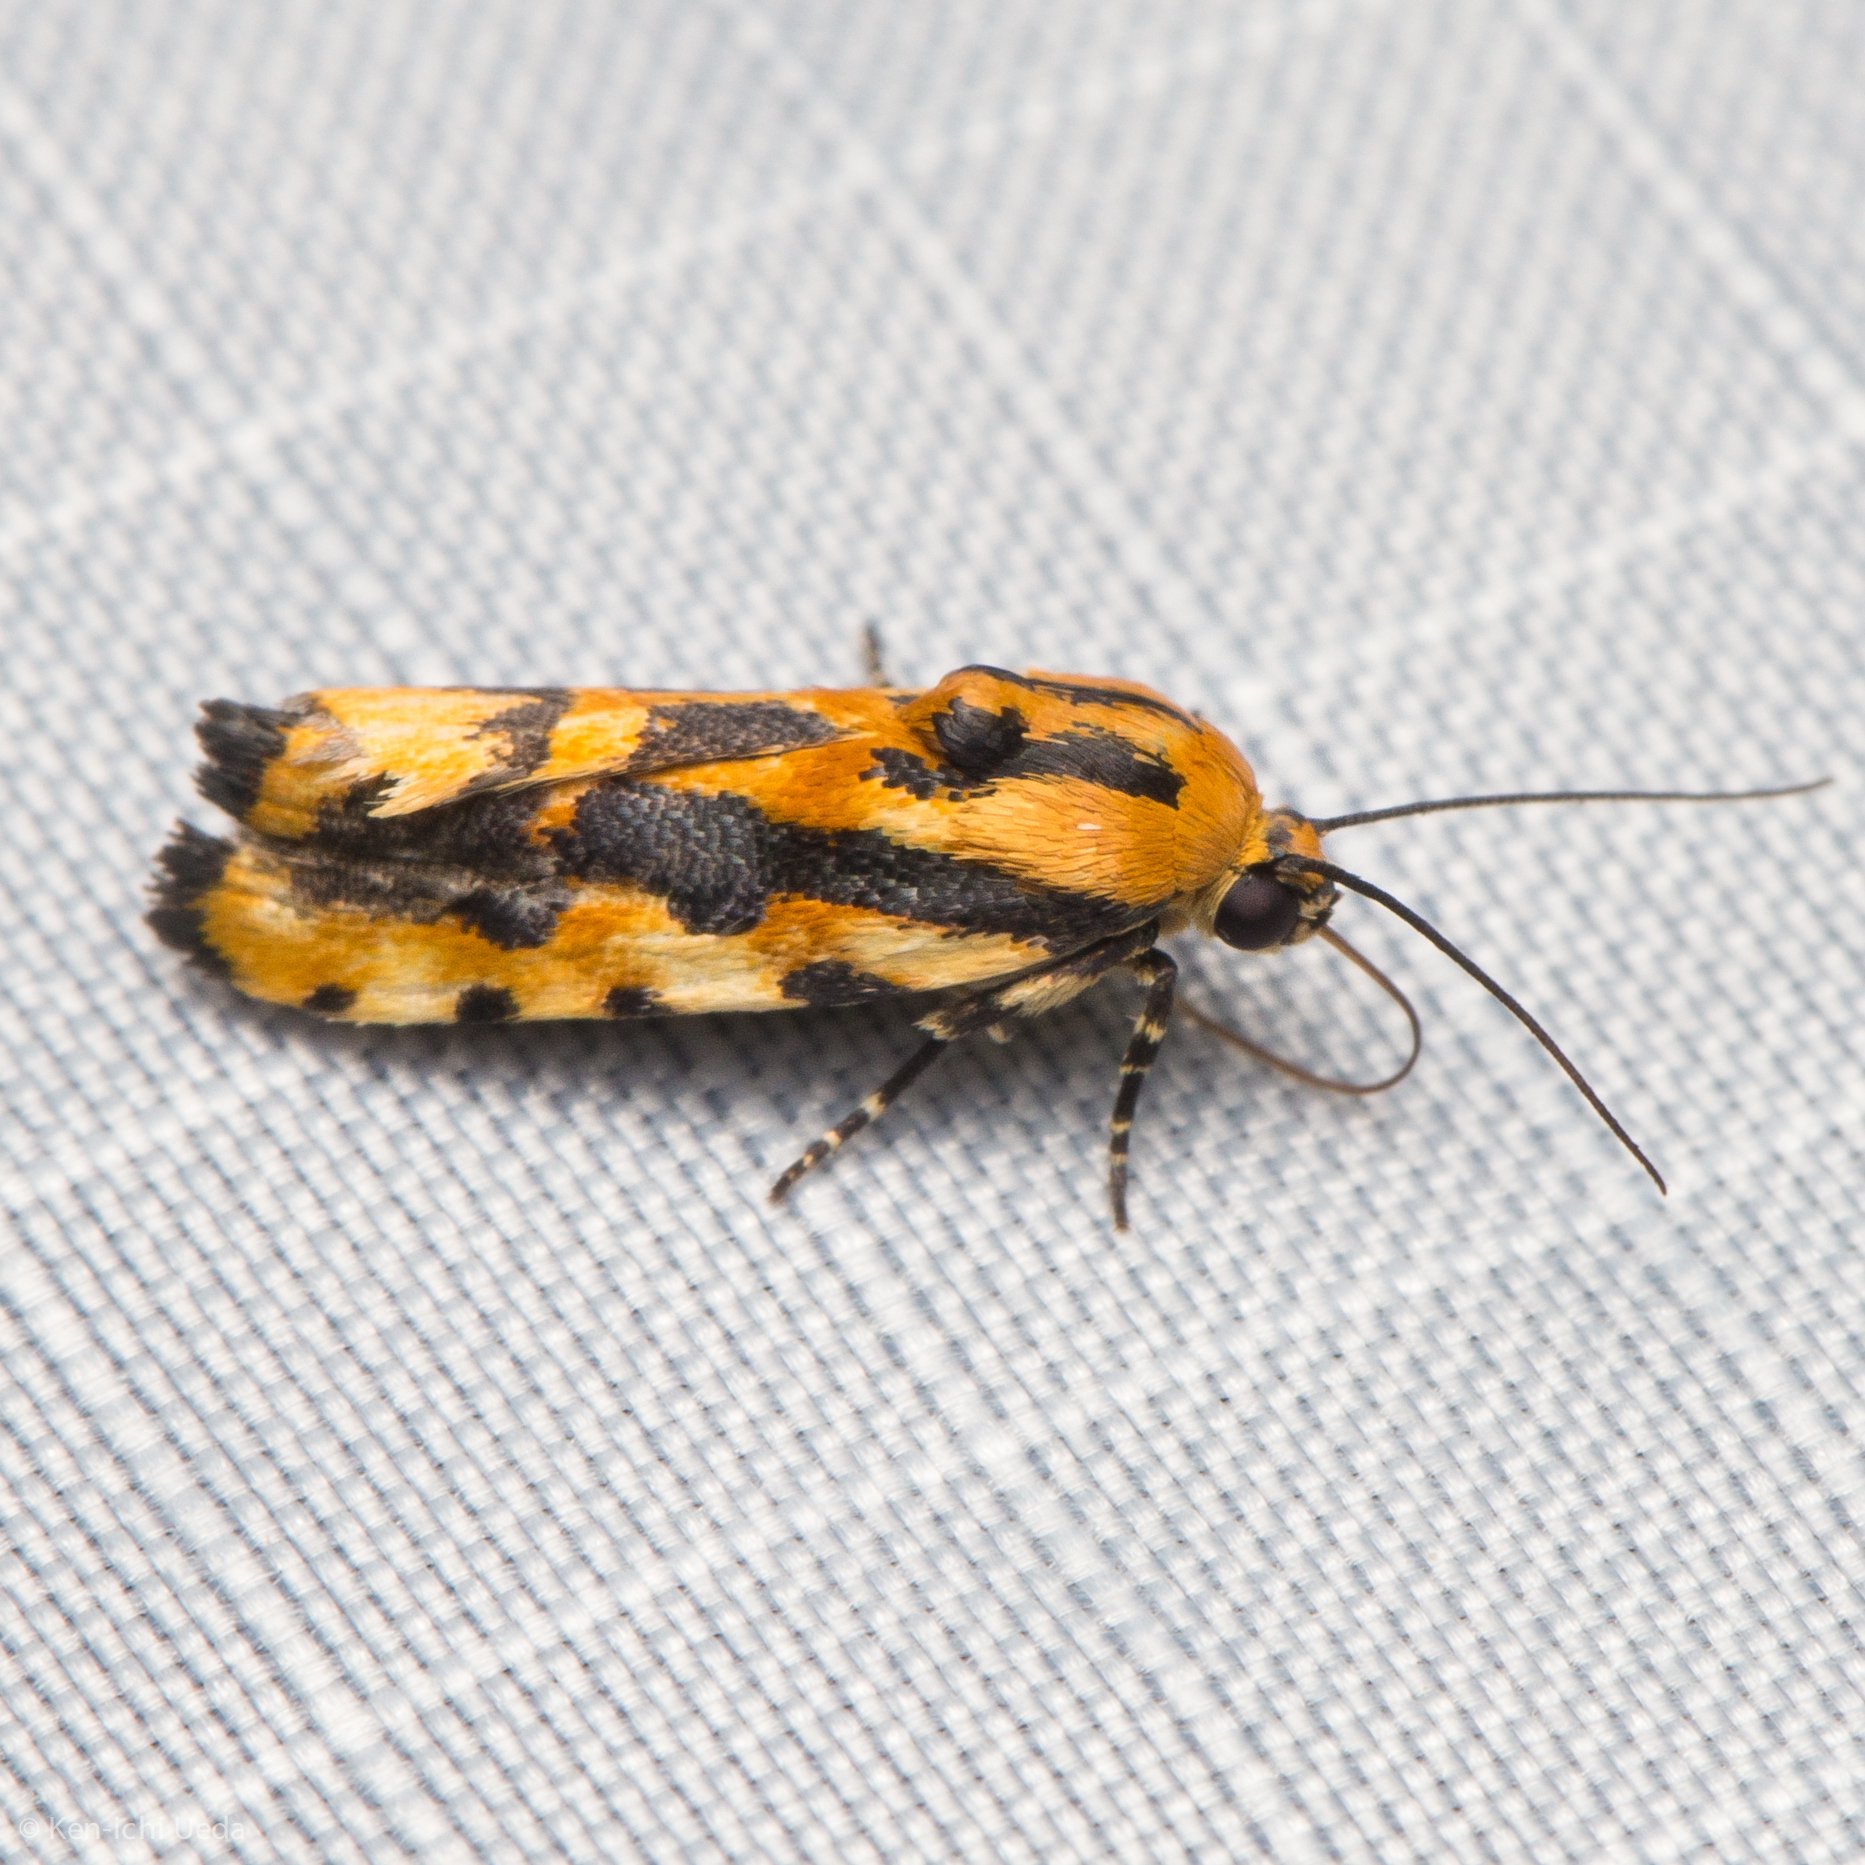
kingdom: Animalia
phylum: Arthropoda
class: Insecta
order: Lepidoptera
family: Noctuidae
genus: Acontia
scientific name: Acontia leo
